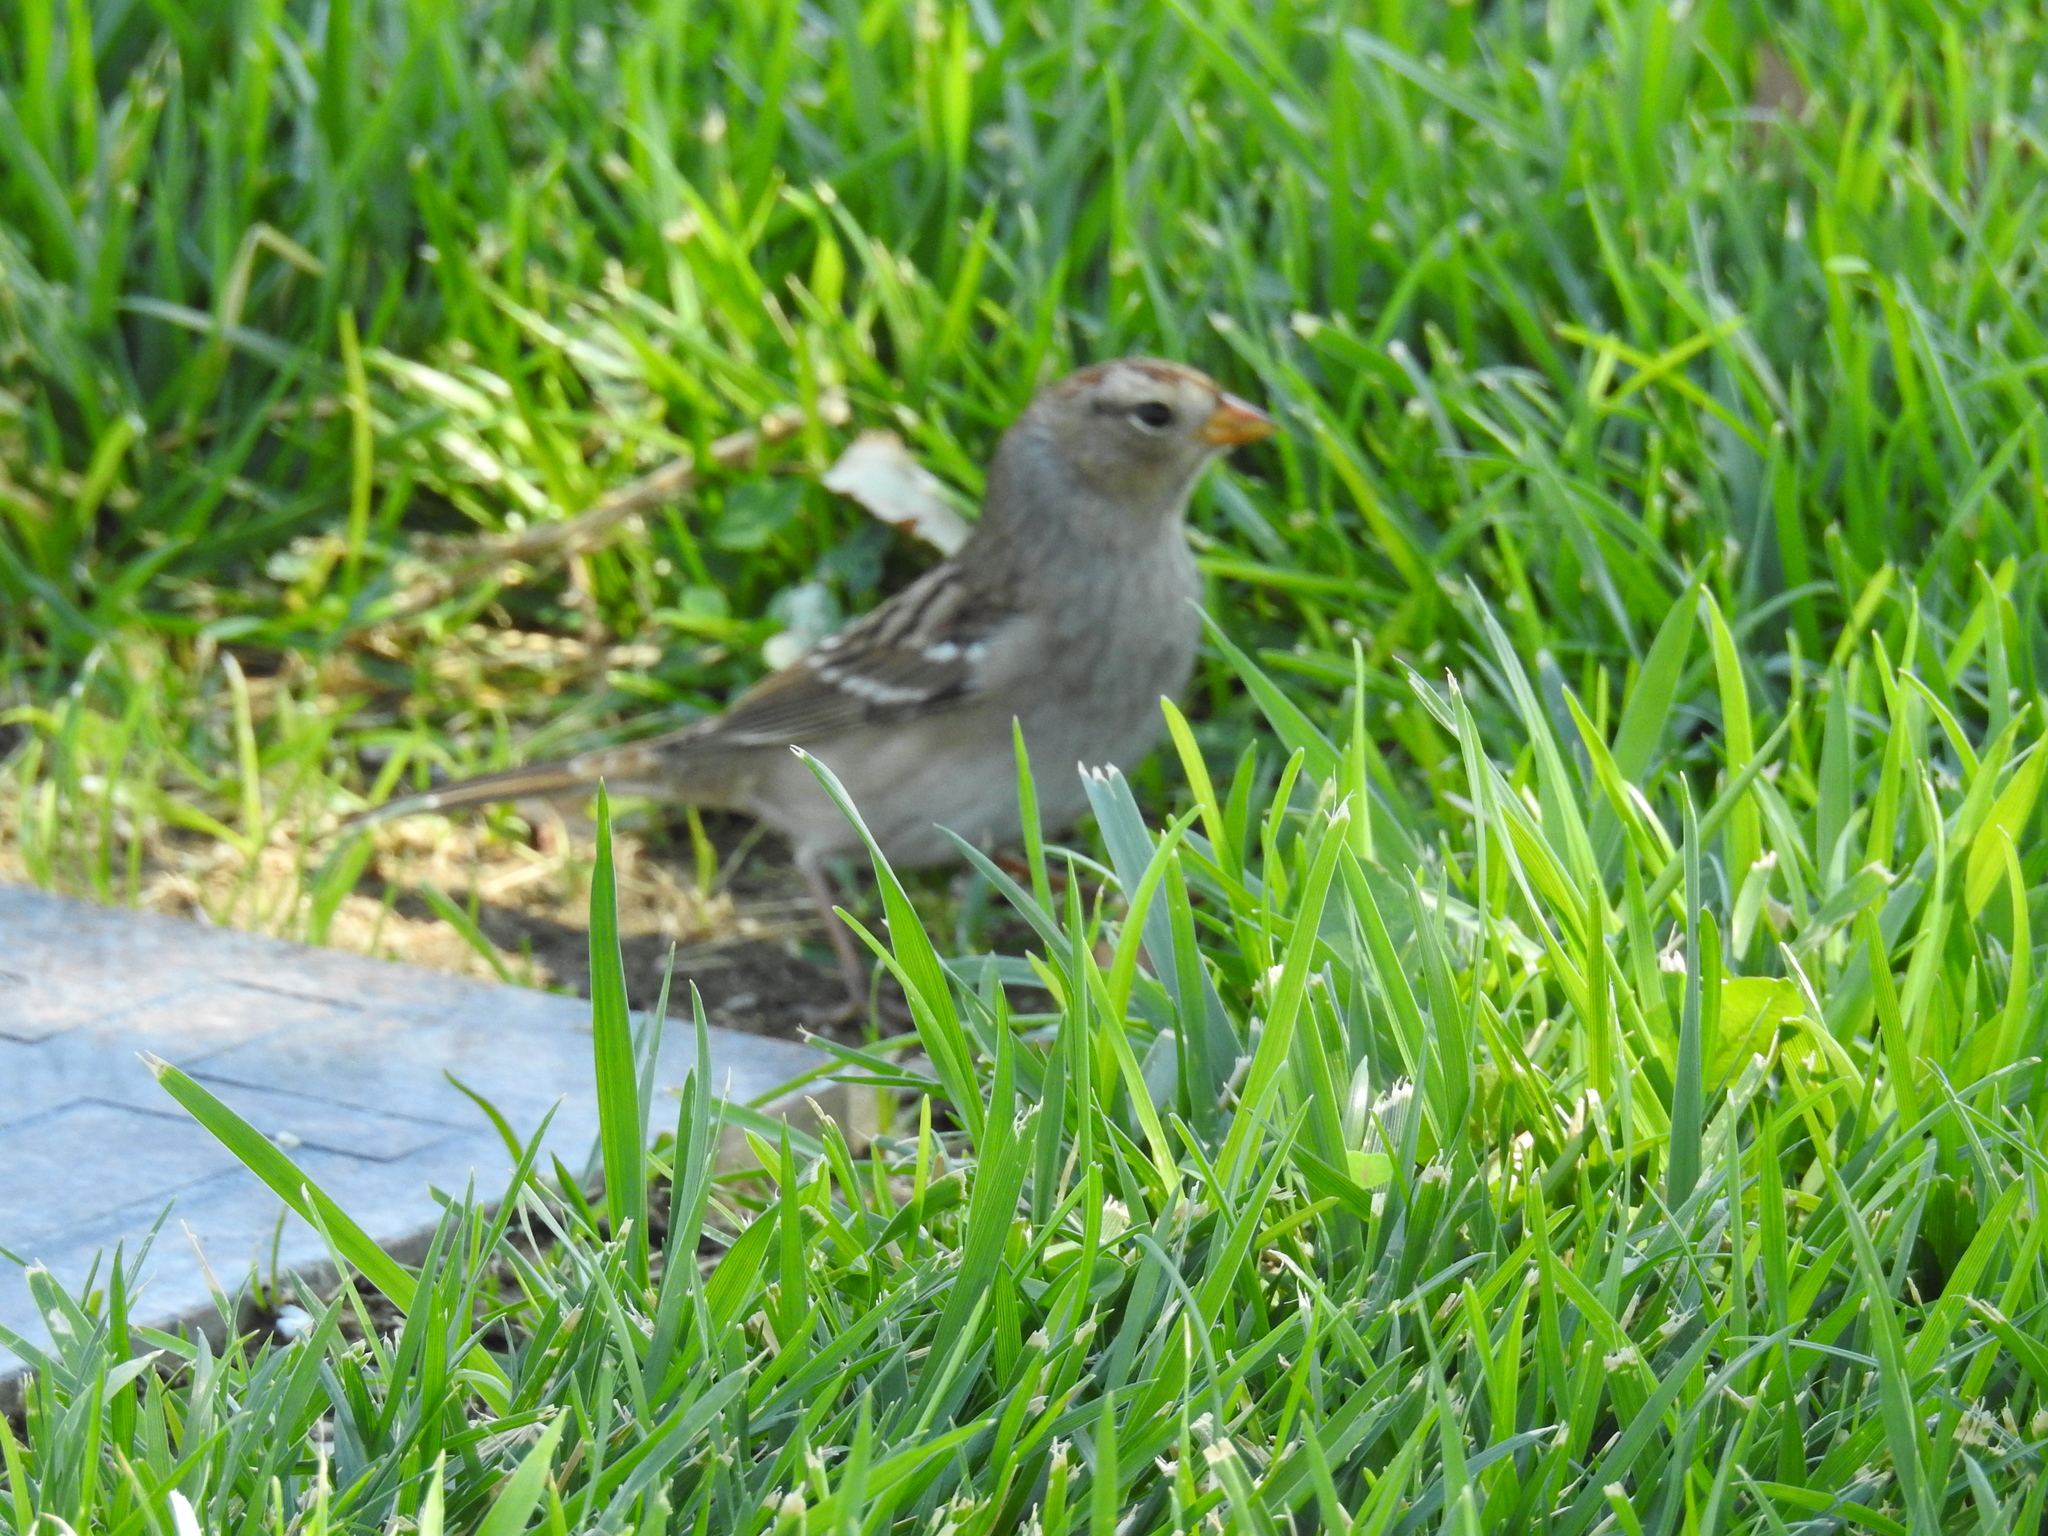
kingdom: Animalia
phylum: Chordata
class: Aves
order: Passeriformes
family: Passerellidae
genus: Zonotrichia
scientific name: Zonotrichia leucophrys
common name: White-crowned sparrow
